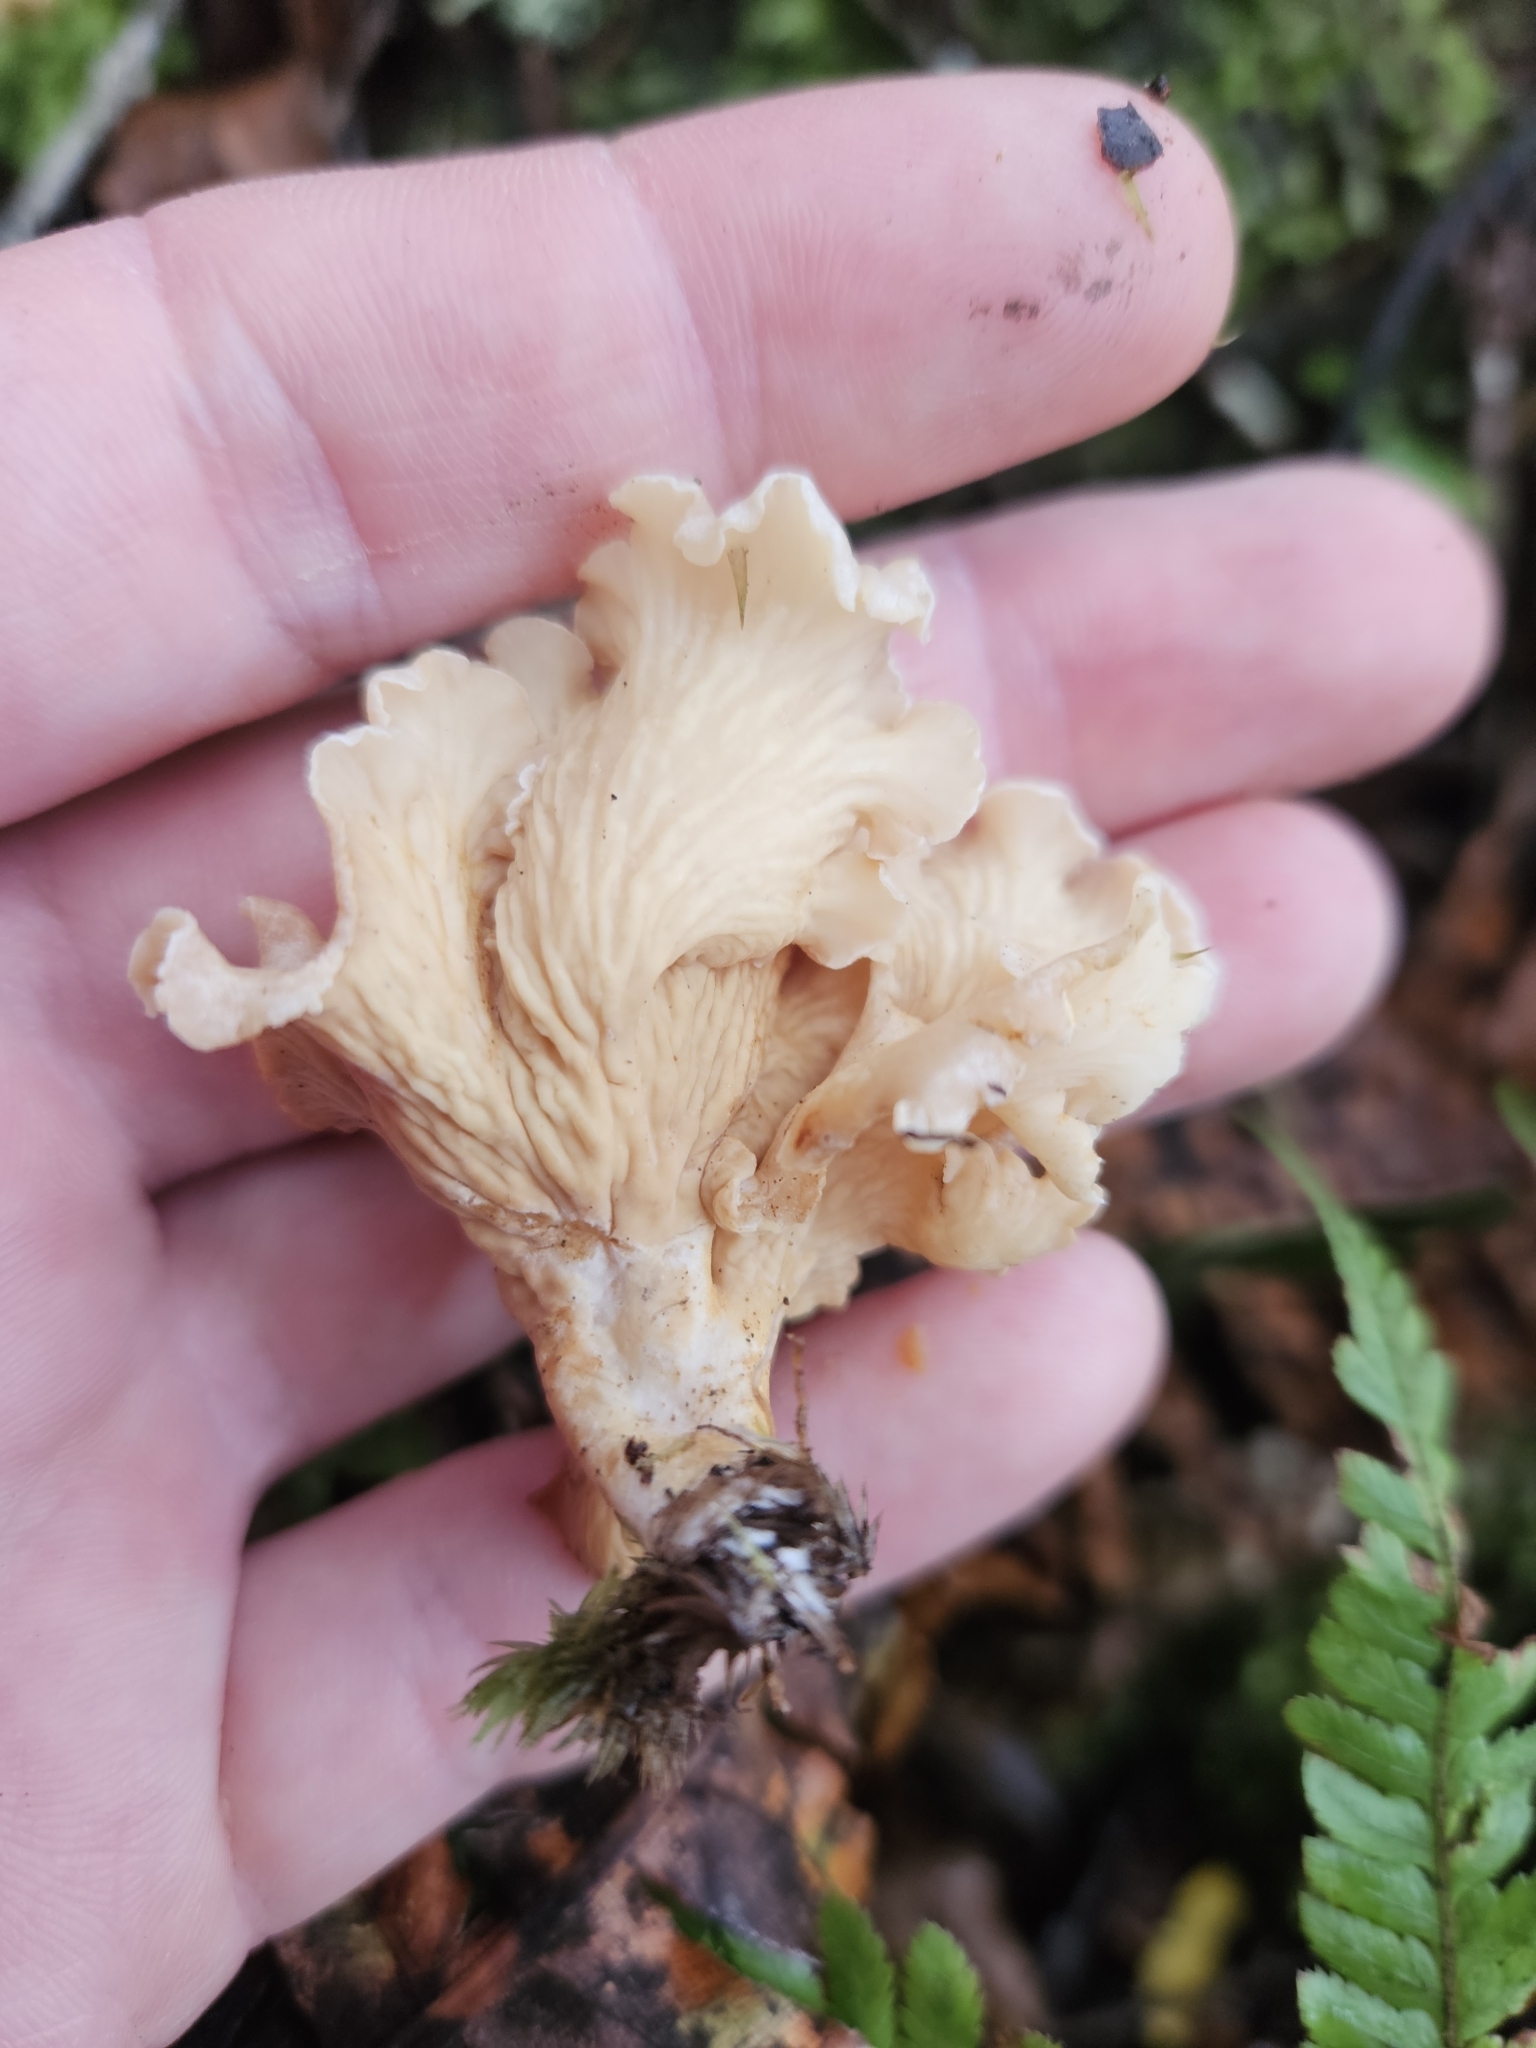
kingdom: Fungi
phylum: Basidiomycota
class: Agaricomycetes
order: Gomphales
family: Gomphaceae
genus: Gloeocantharellus
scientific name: Gloeocantharellus novae-zelandiae
